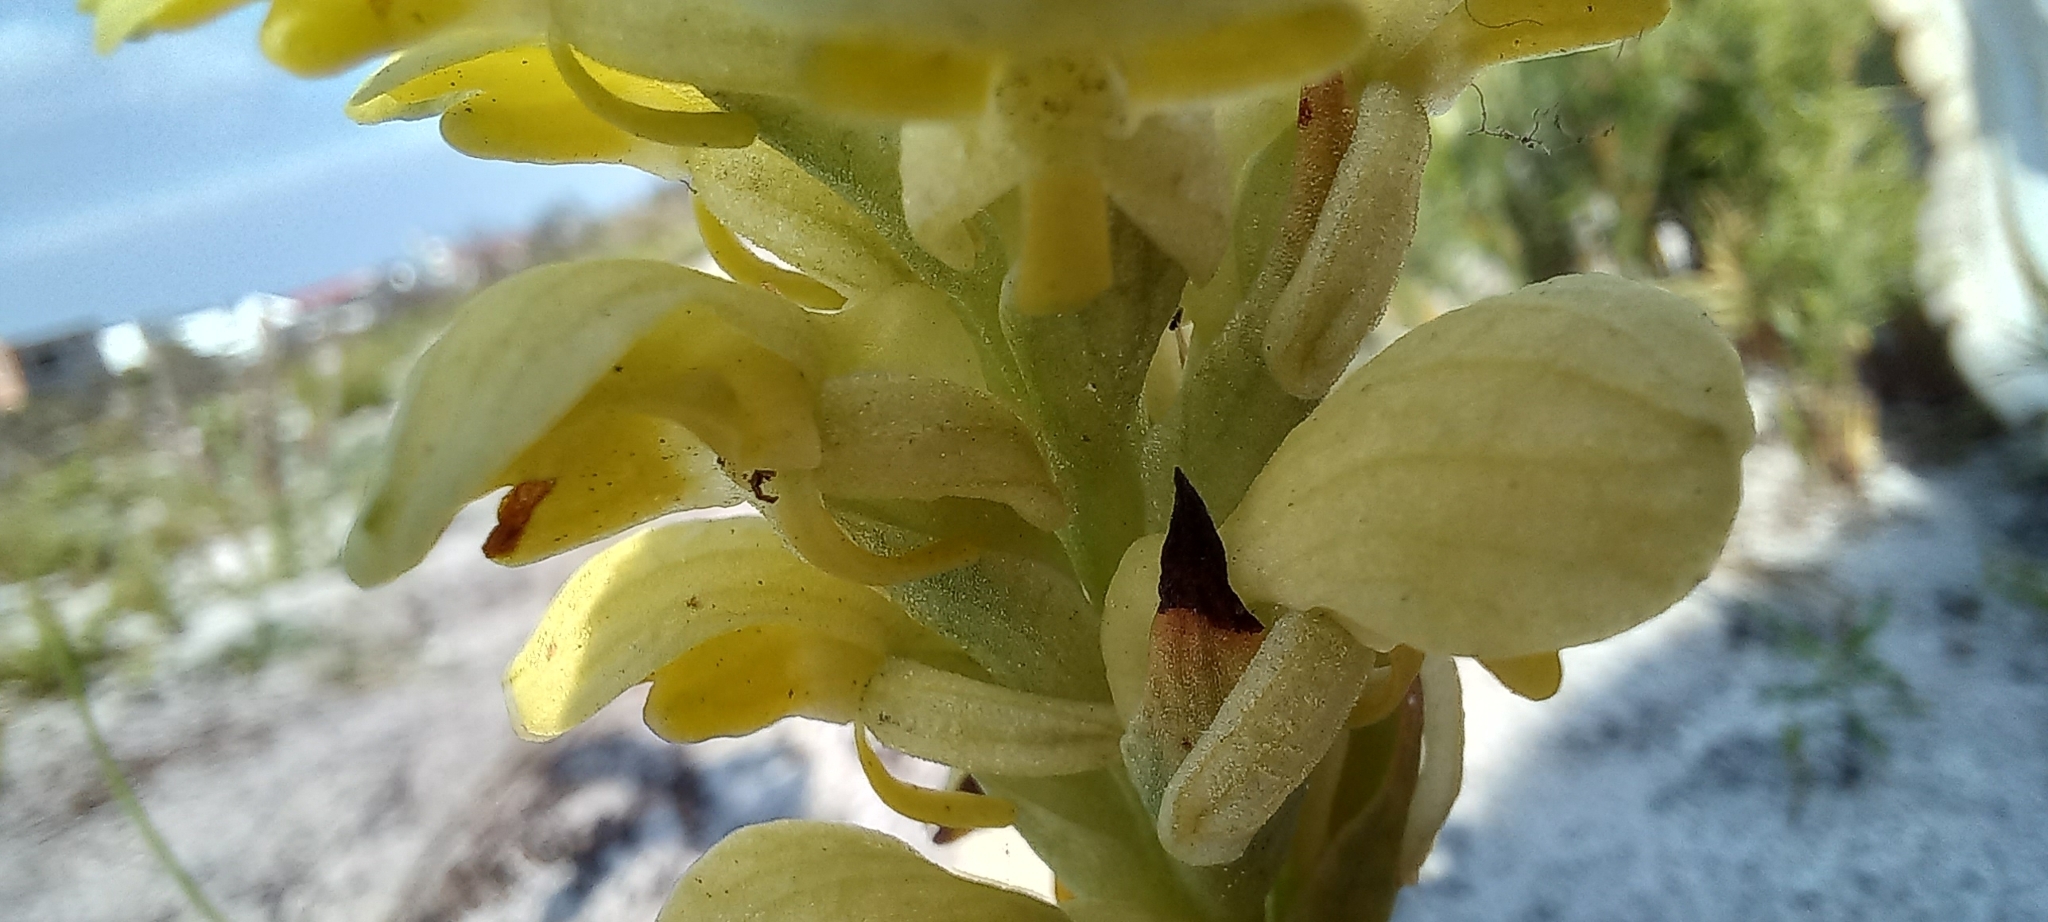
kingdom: Plantae
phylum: Tracheophyta
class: Liliopsida
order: Asparagales
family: Orchidaceae
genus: Disa
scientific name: Disa sabulosa
